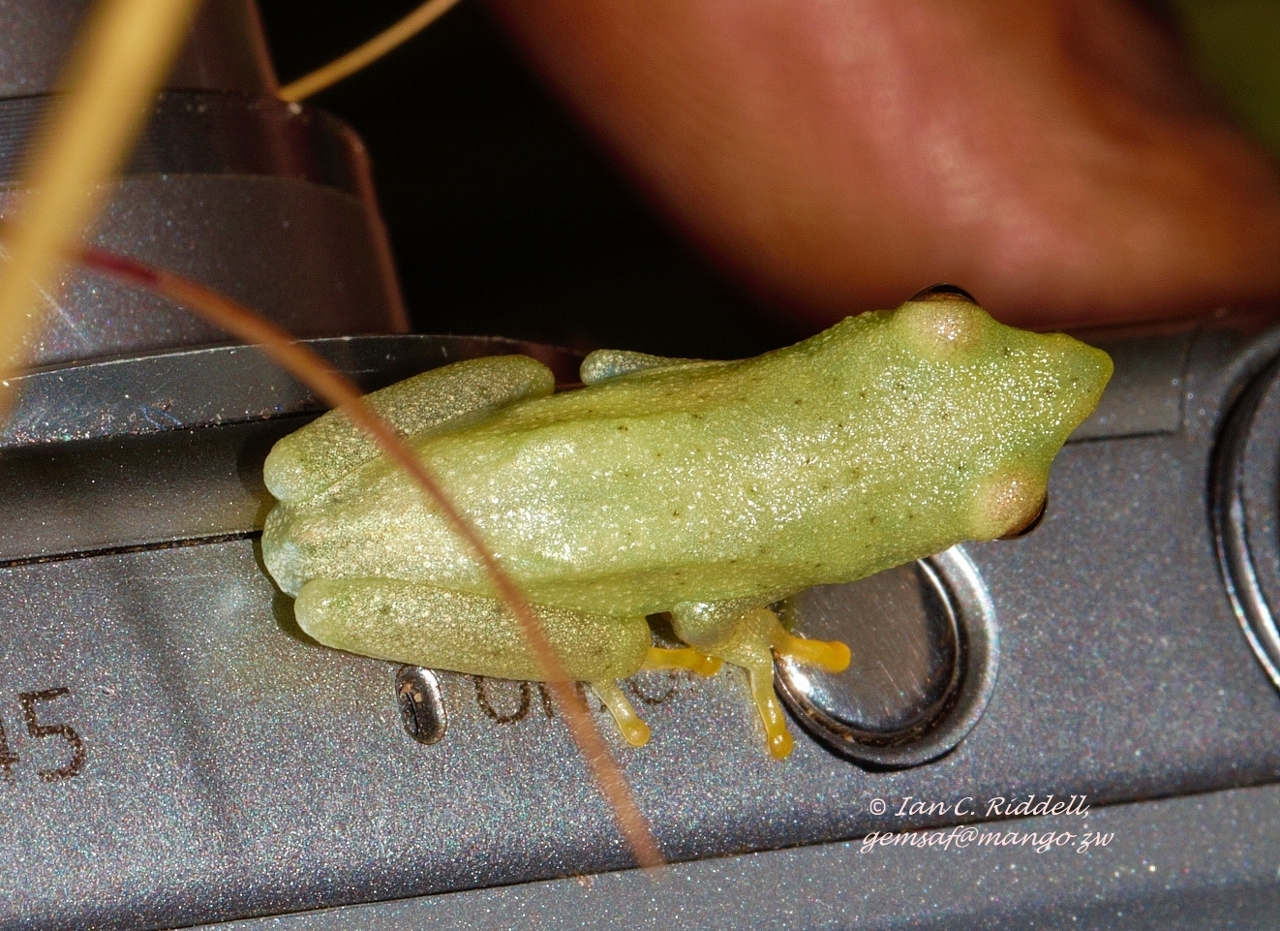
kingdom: Animalia
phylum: Chordata
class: Amphibia
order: Anura
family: Hyperoliidae
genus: Hyperolius
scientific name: Hyperolius inyangae
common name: Nyanga long reed frog
